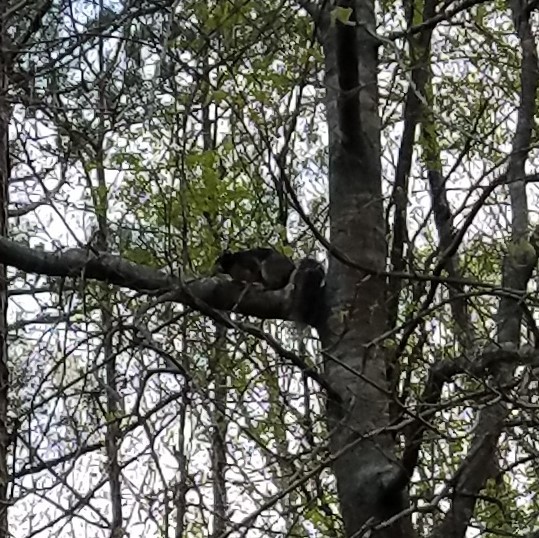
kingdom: Animalia
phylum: Chordata
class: Mammalia
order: Rodentia
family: Sciuridae
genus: Sciurus
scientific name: Sciurus niger
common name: Fox squirrel
